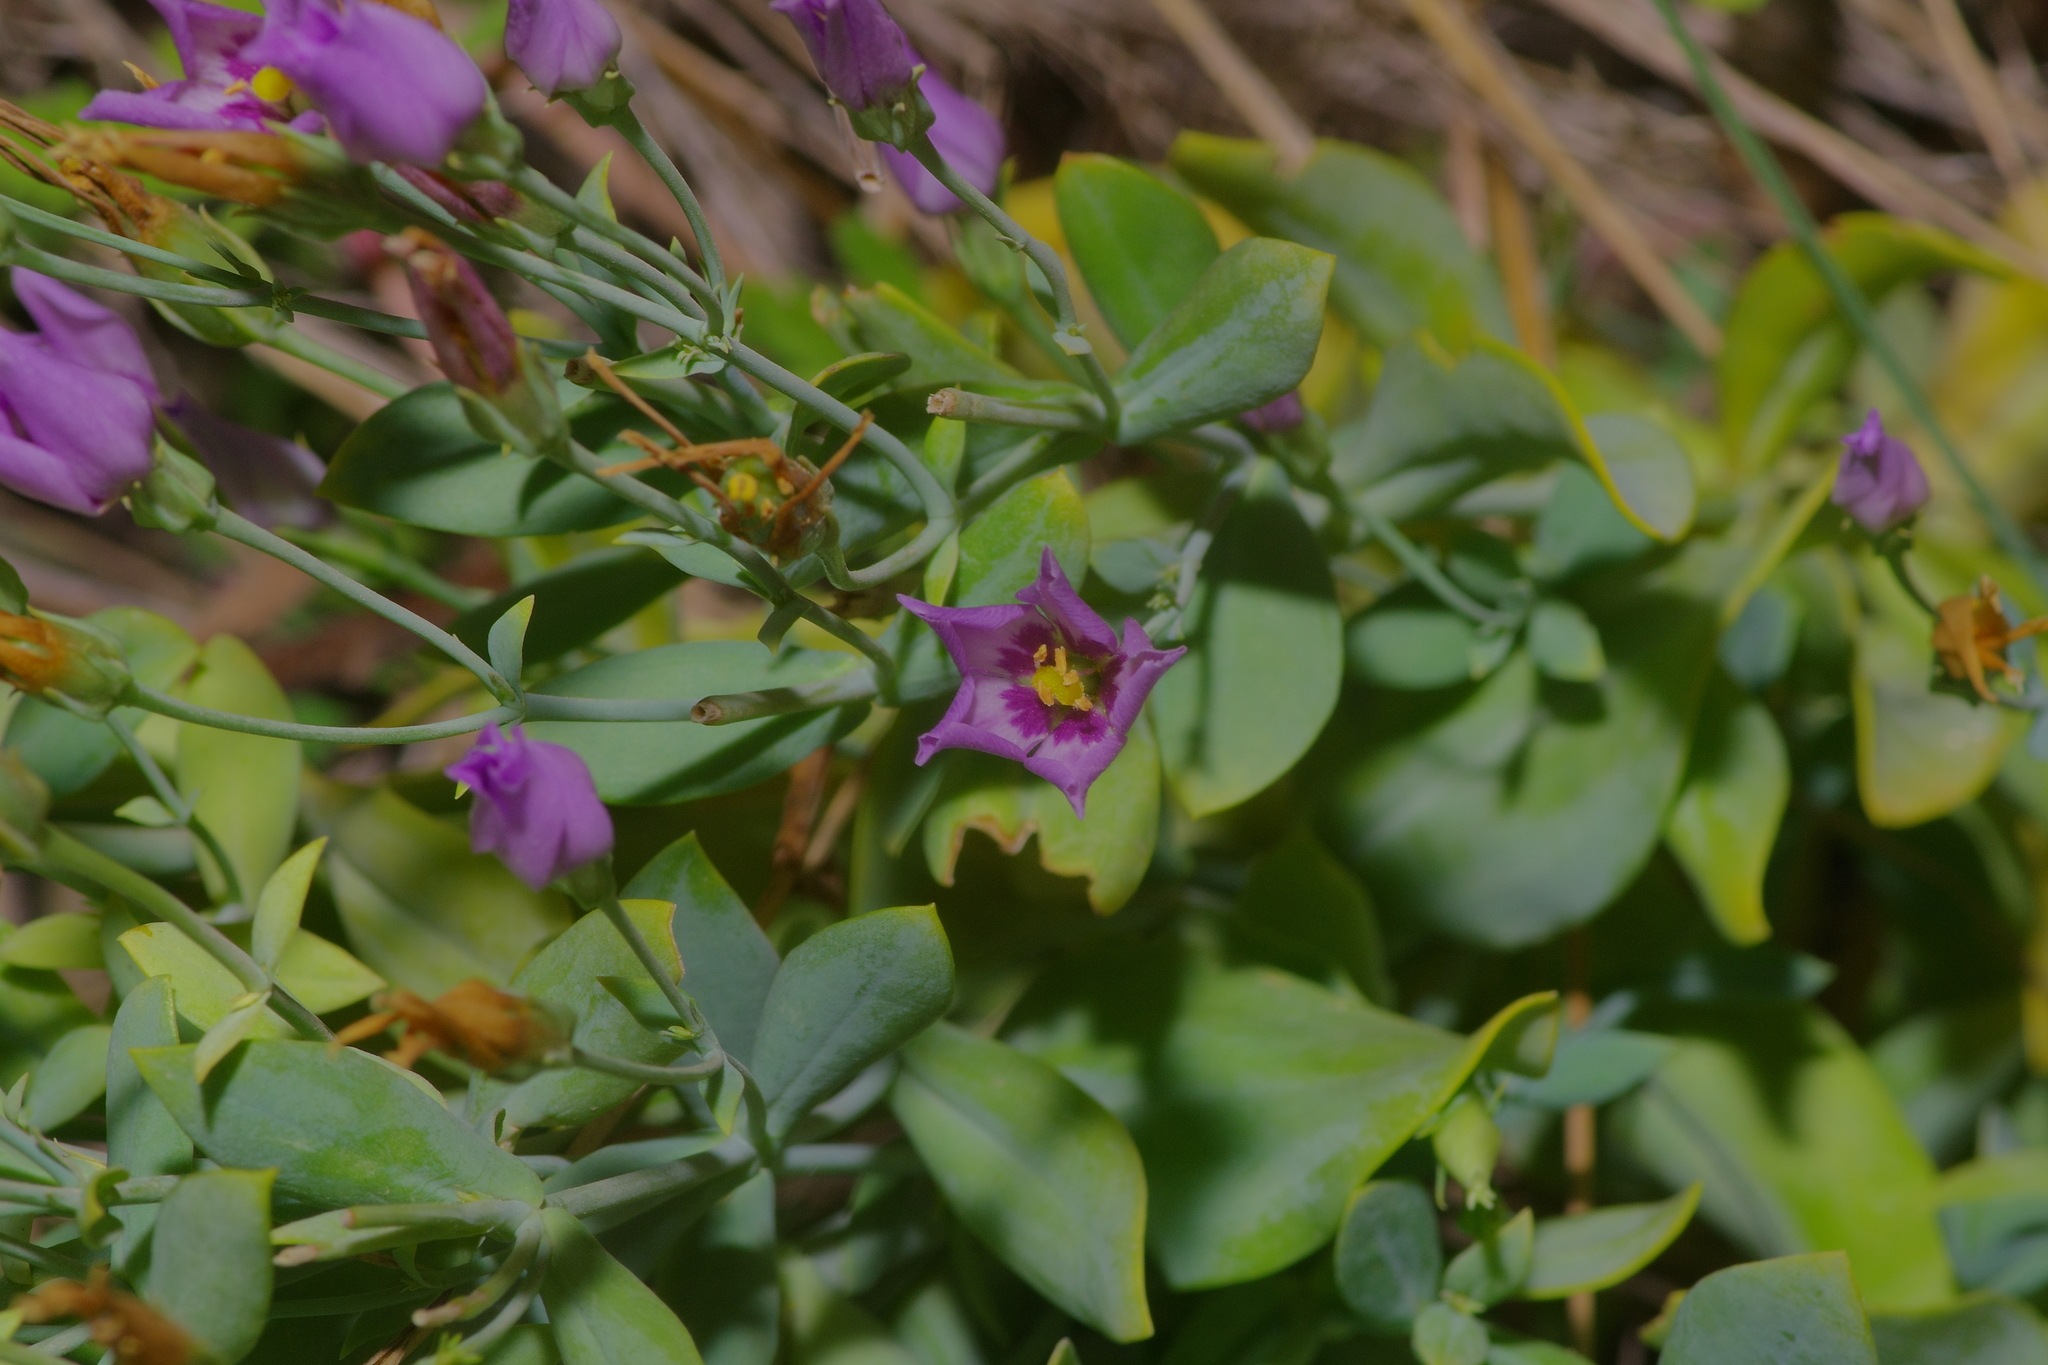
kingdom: Plantae
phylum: Tracheophyta
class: Magnoliopsida
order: Gentianales
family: Gentianaceae
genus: Eustoma
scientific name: Eustoma exaltatum
